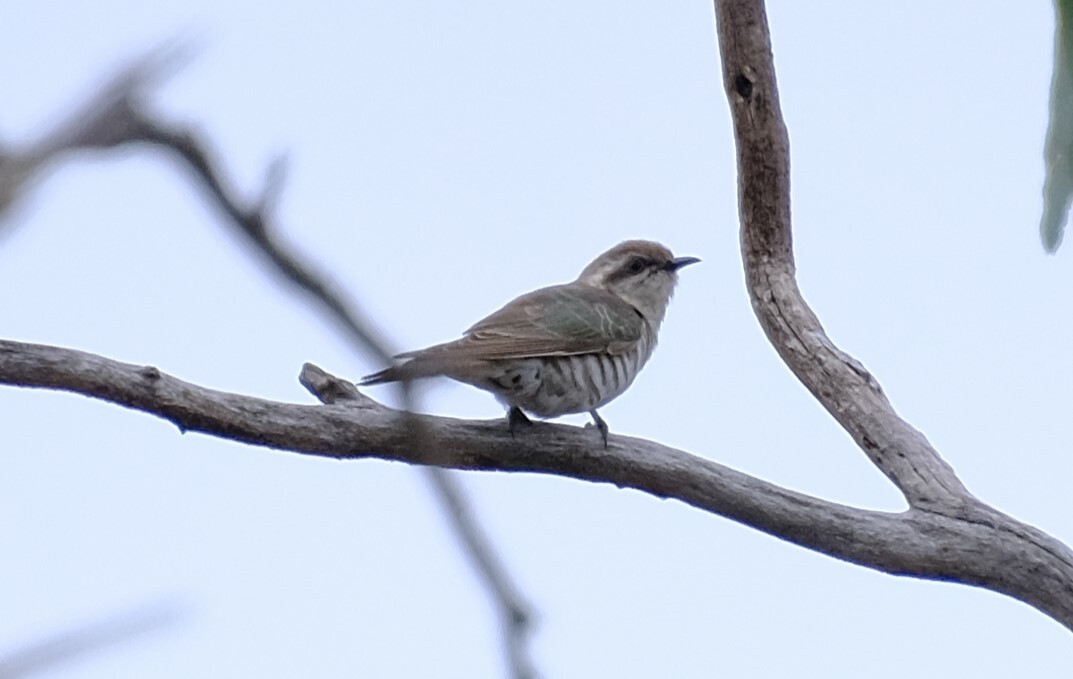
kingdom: Animalia
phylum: Chordata
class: Aves
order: Cuculiformes
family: Cuculidae
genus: Chrysococcyx
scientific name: Chrysococcyx basalis
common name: Horsfield's bronze cuckoo
